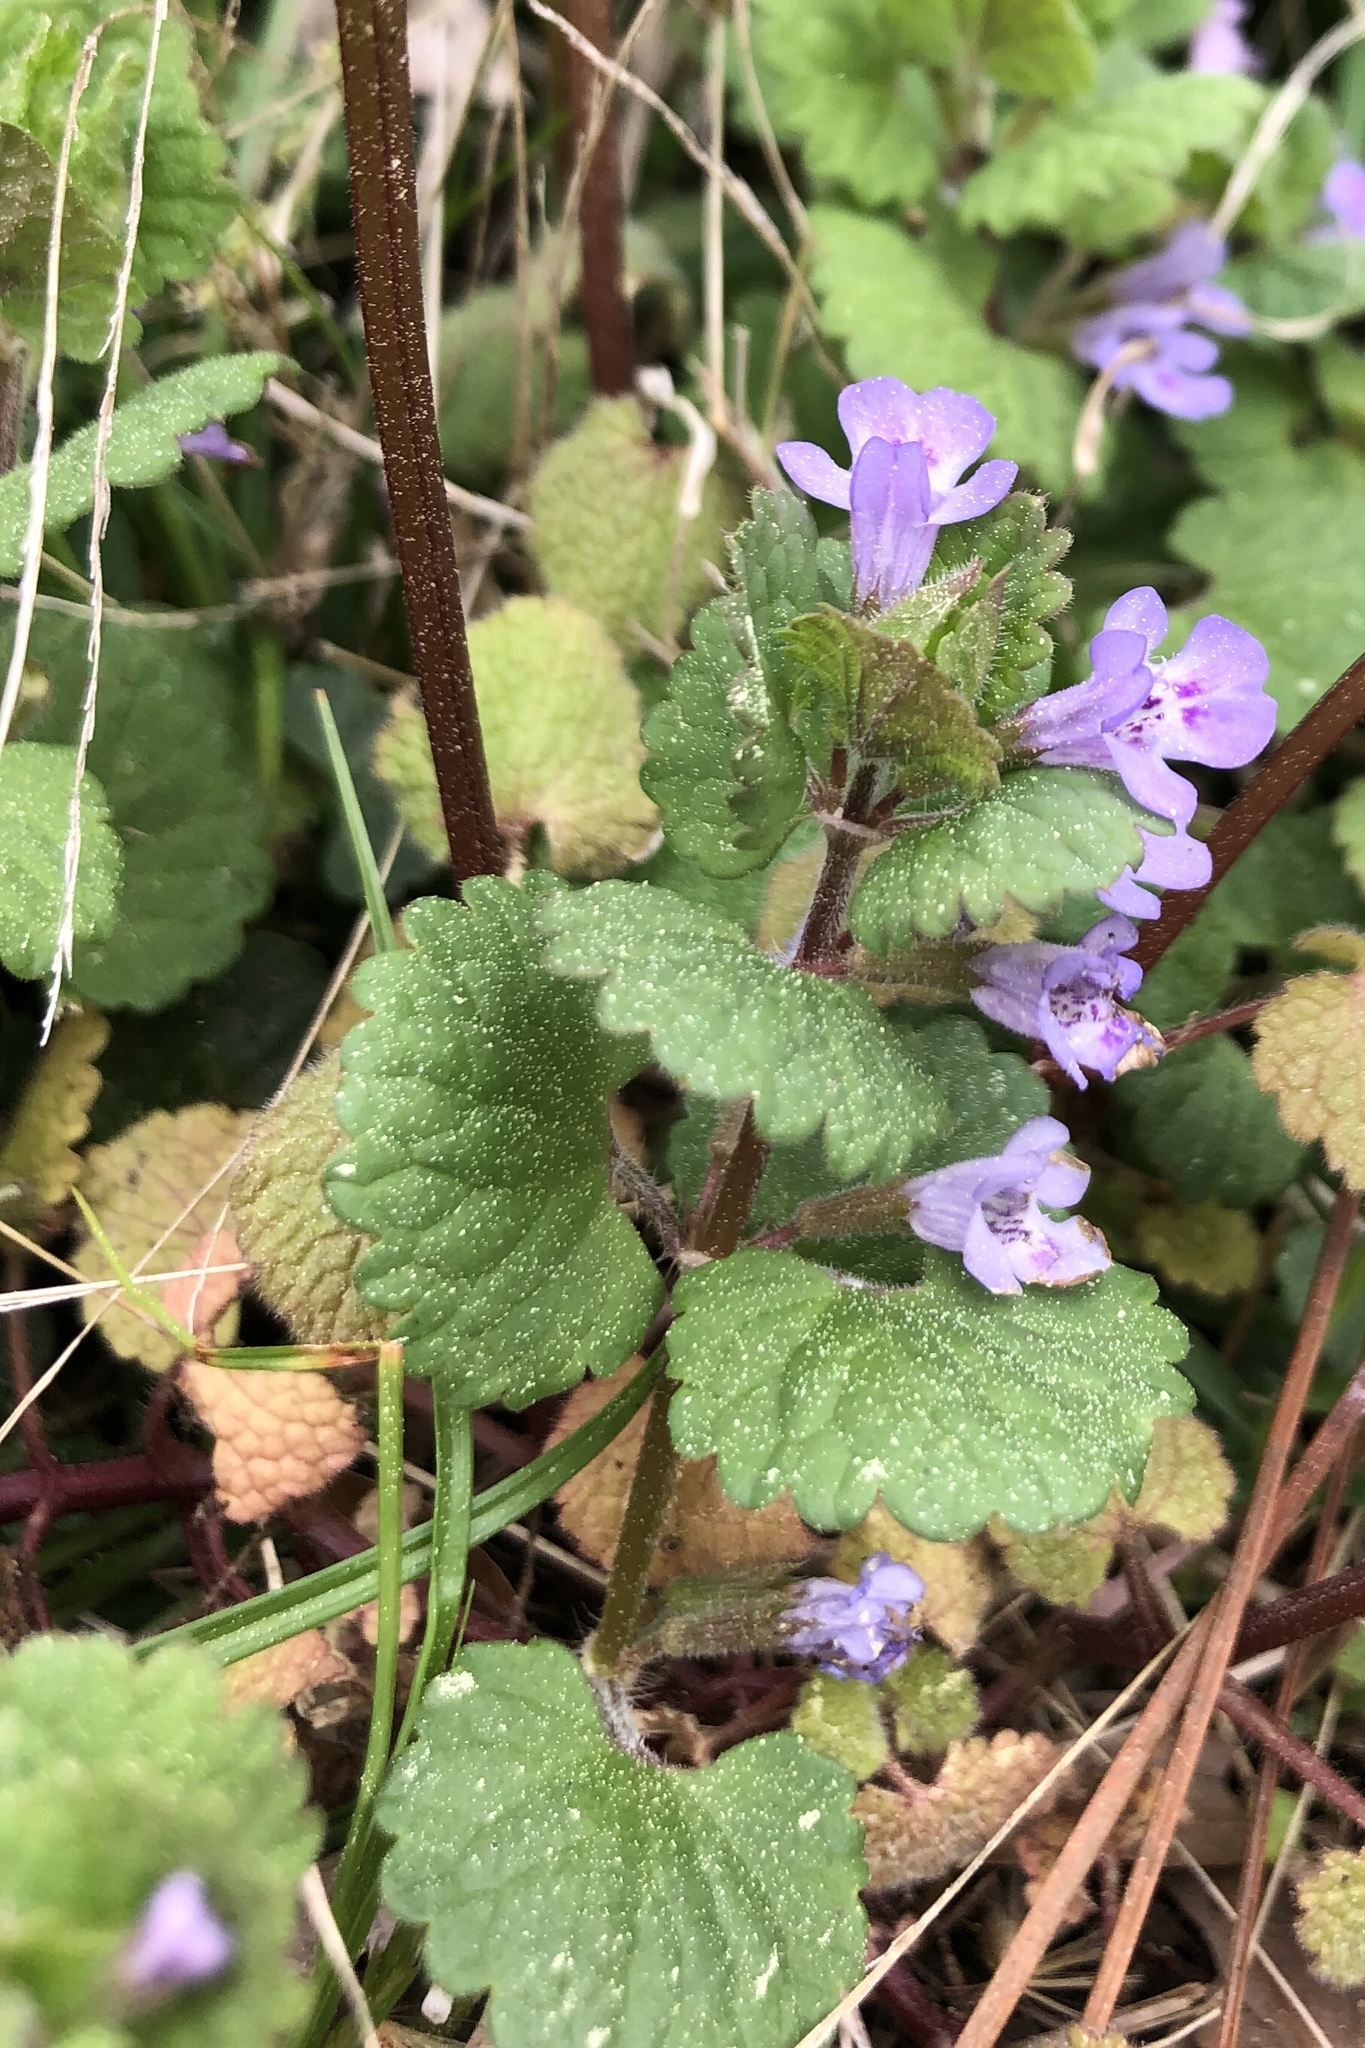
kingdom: Plantae
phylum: Tracheophyta
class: Magnoliopsida
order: Lamiales
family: Lamiaceae
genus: Glechoma
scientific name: Glechoma hederacea
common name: Ground ivy
